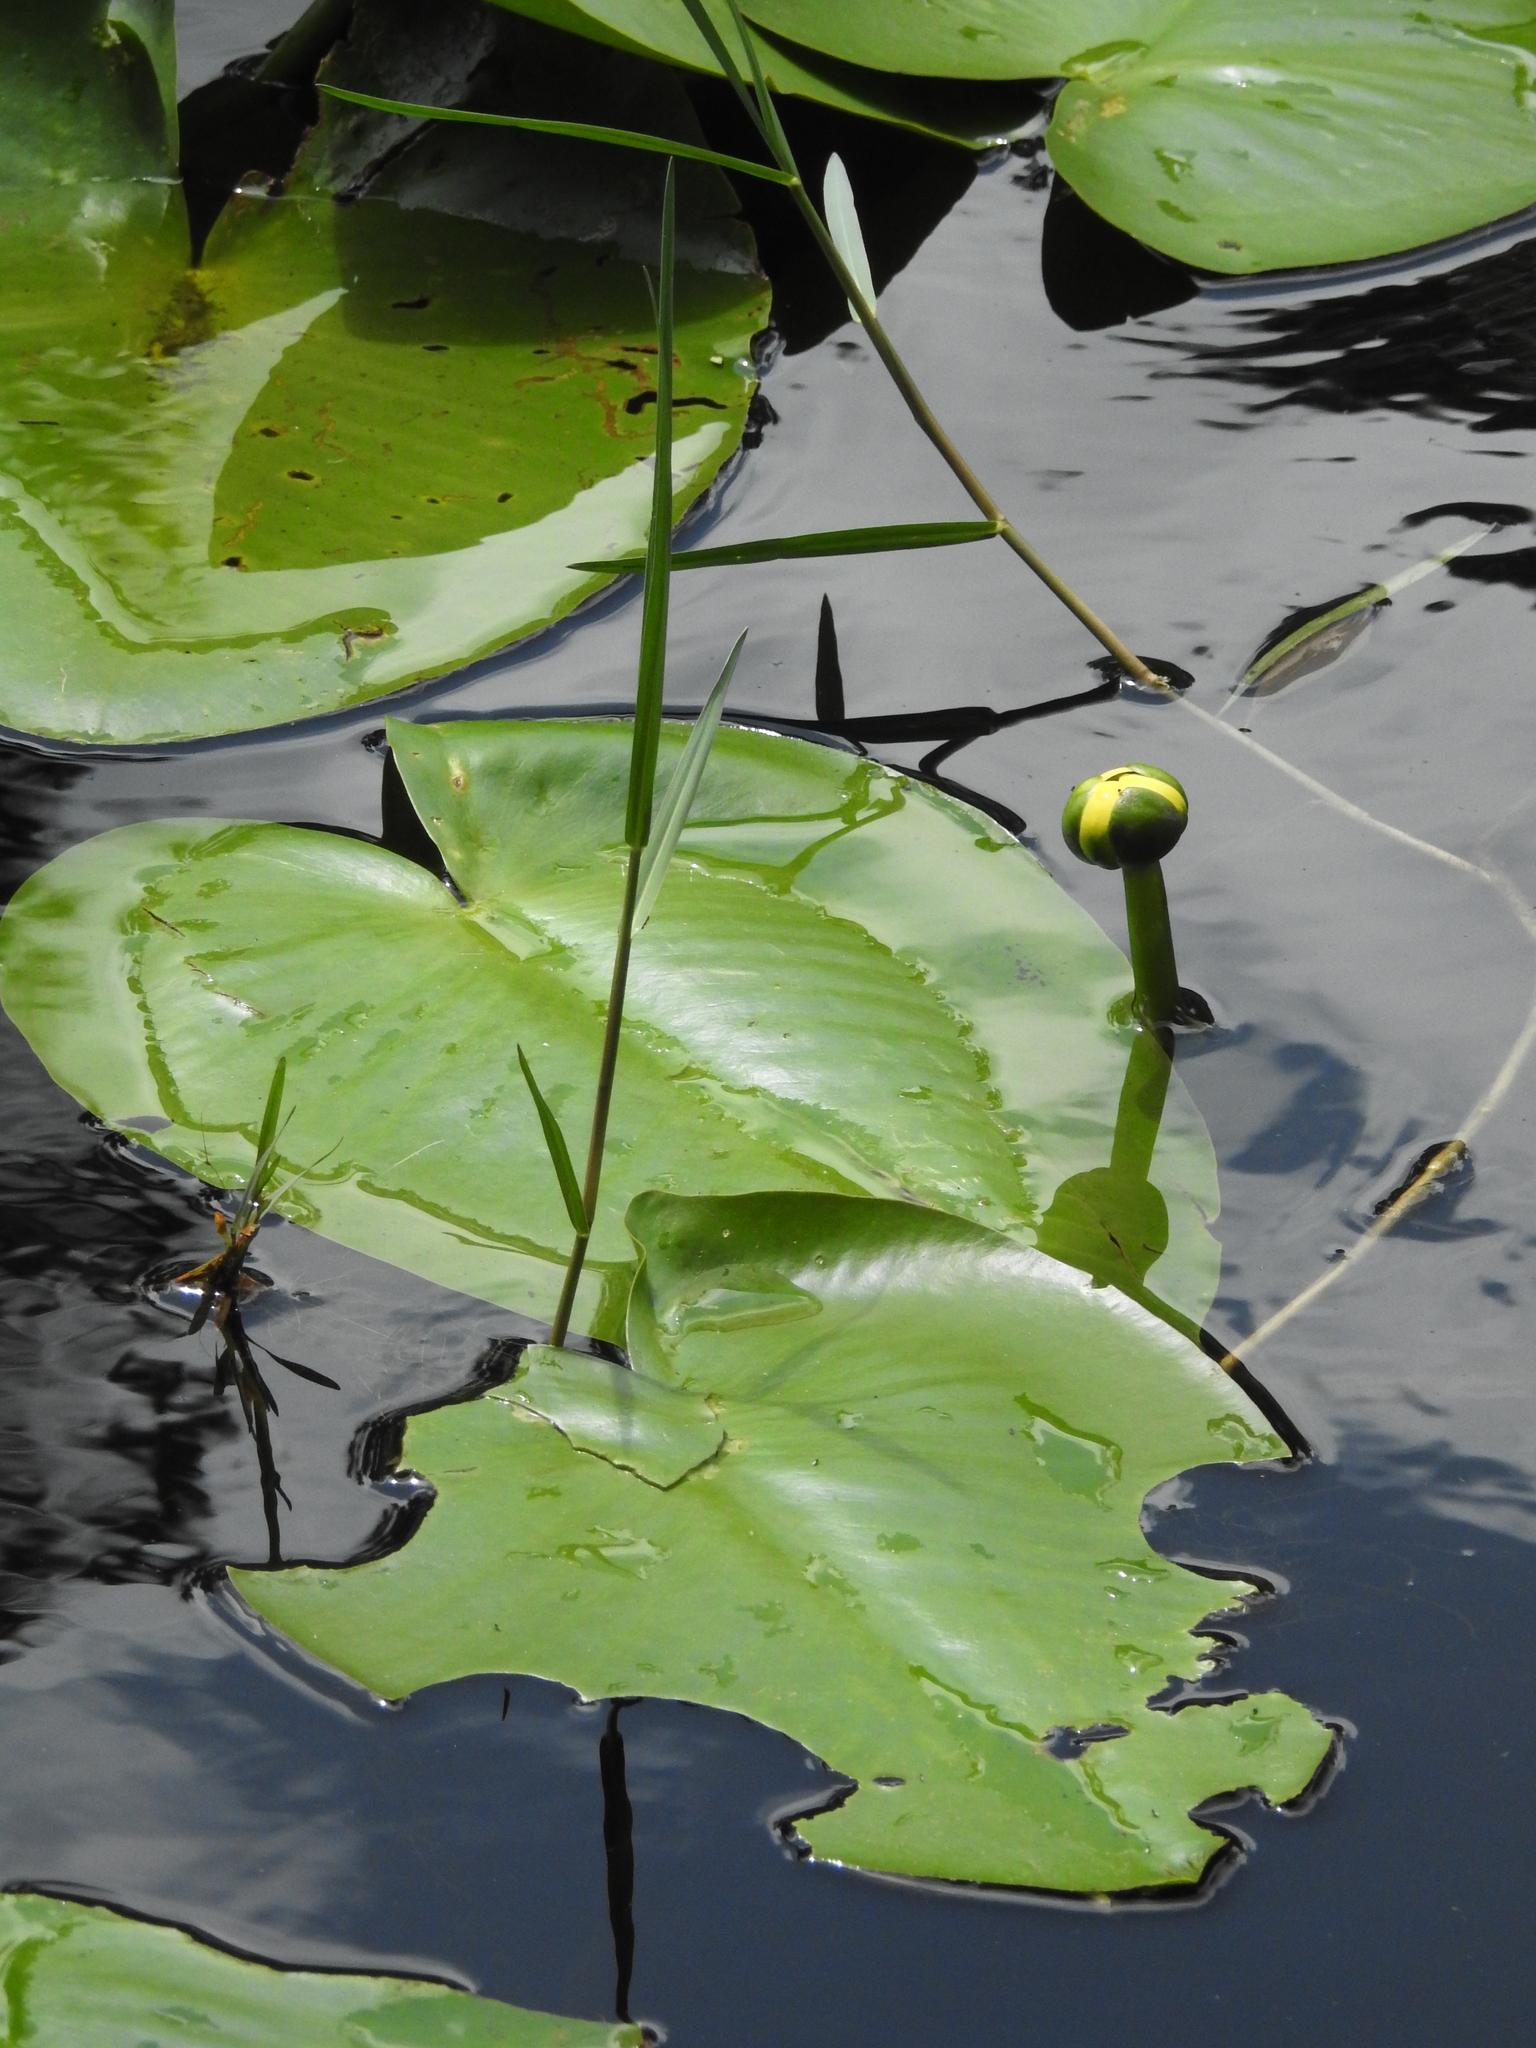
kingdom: Plantae
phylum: Tracheophyta
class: Magnoliopsida
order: Nymphaeales
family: Nymphaeaceae
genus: Nuphar
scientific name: Nuphar advena
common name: Spatter-dock
